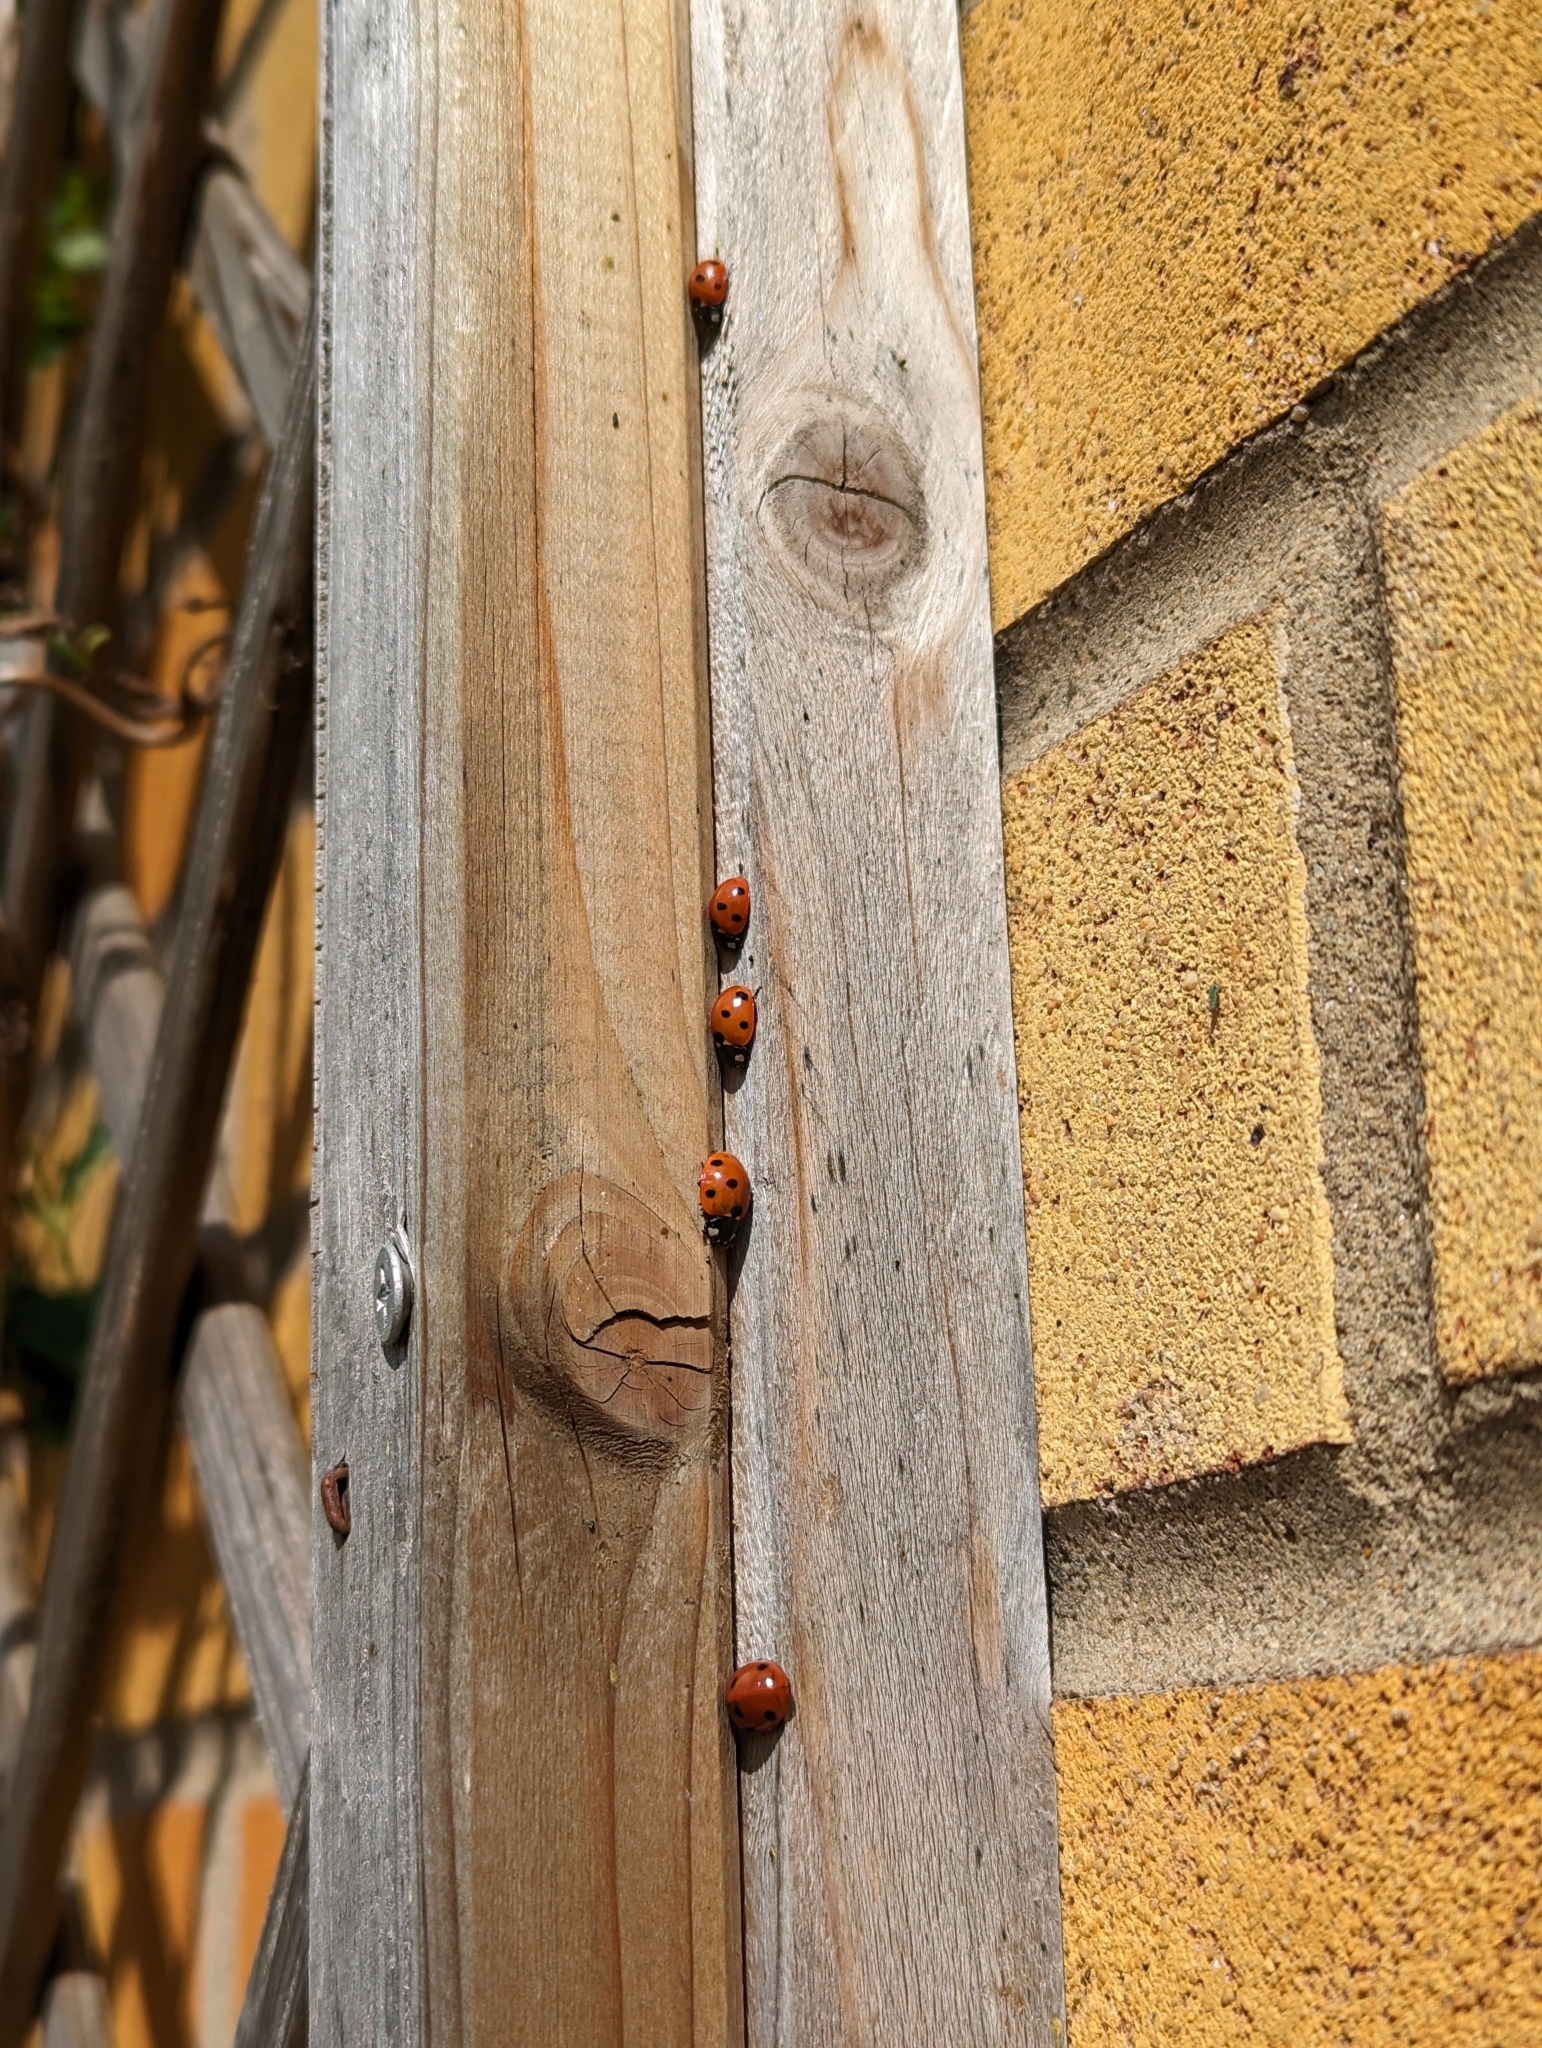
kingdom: Animalia
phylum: Arthropoda
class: Insecta
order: Coleoptera
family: Coccinellidae
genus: Coccinella
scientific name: Coccinella septempunctata
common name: Sevenspotted lady beetle
